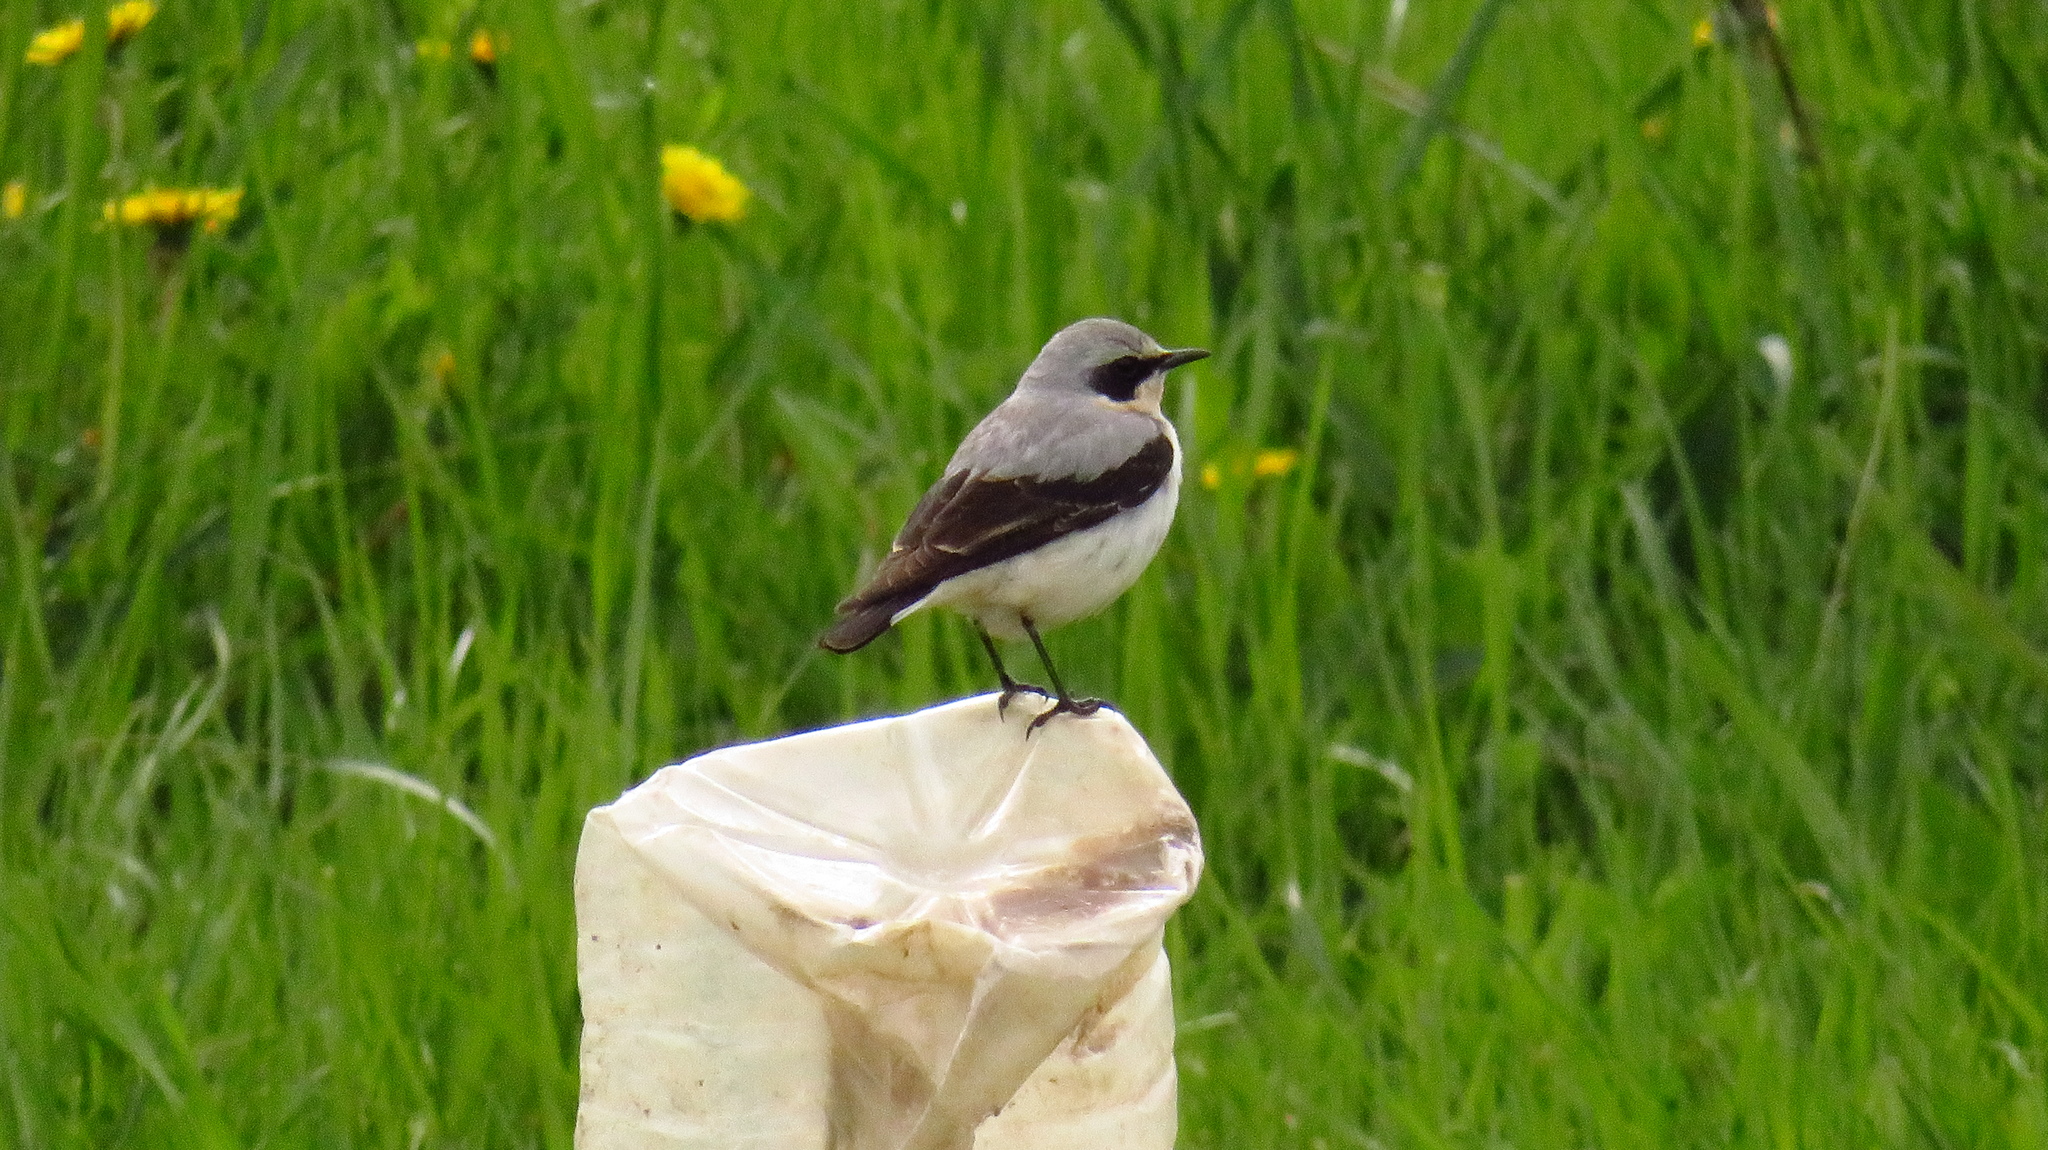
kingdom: Animalia
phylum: Chordata
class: Aves
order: Passeriformes
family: Muscicapidae
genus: Oenanthe
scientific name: Oenanthe oenanthe
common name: Northern wheatear
